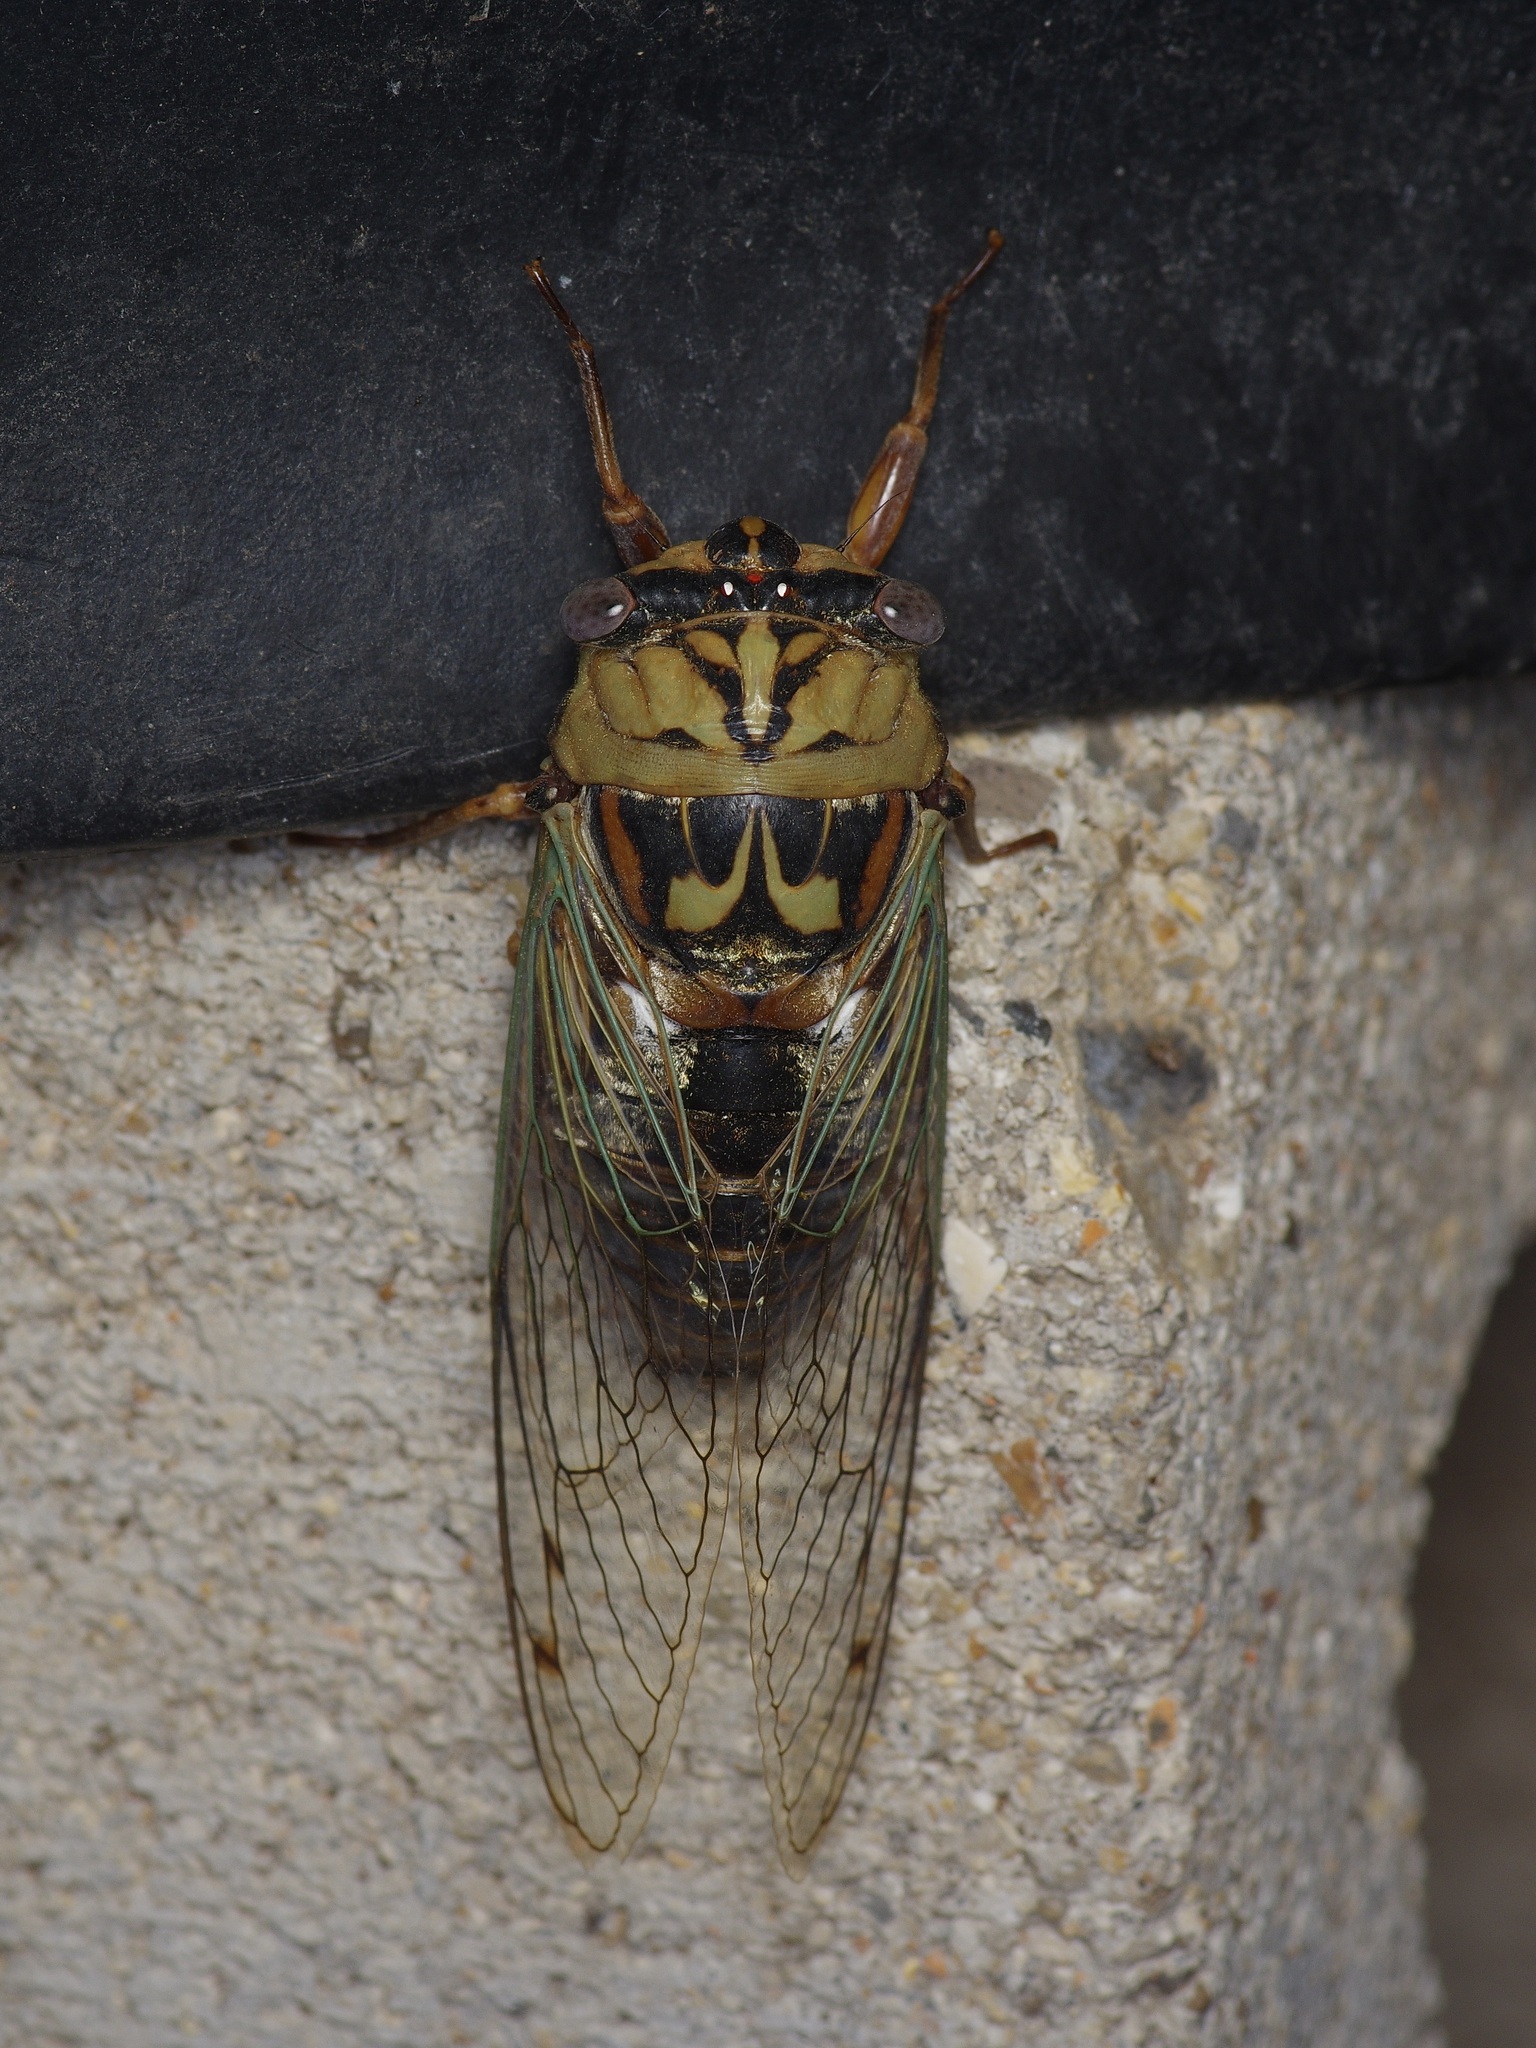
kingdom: Animalia
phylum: Arthropoda
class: Insecta
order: Hemiptera
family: Cicadidae
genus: Megatibicen
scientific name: Megatibicen resh
